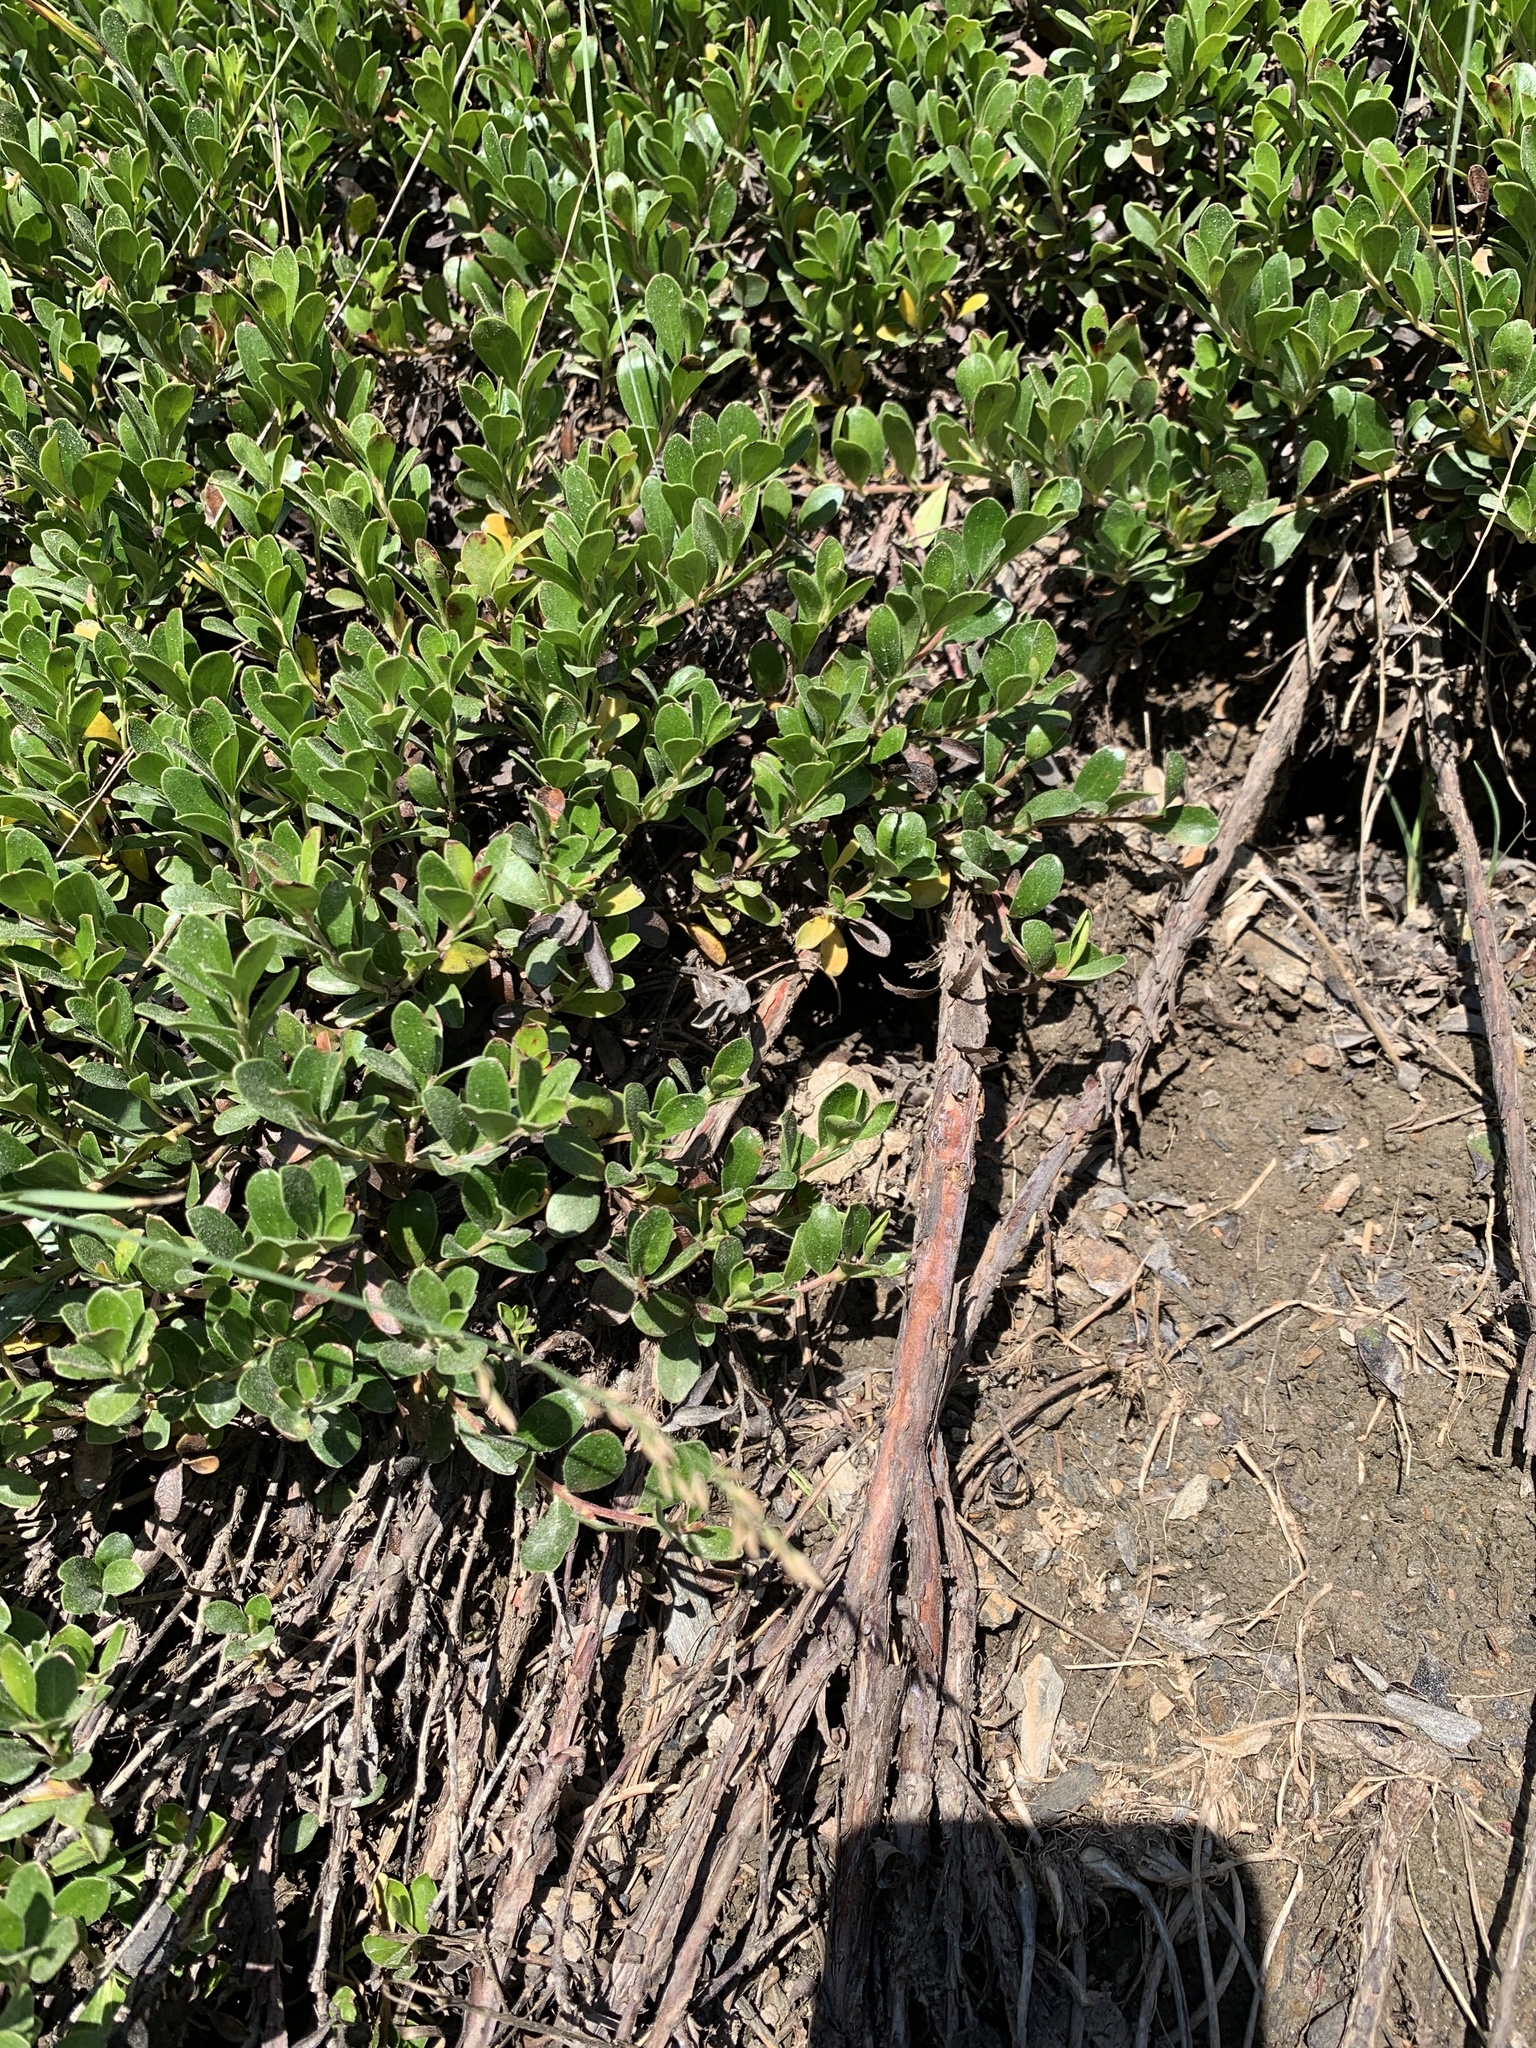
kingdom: Plantae
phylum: Tracheophyta
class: Magnoliopsida
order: Ericales
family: Ericaceae
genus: Arctostaphylos
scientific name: Arctostaphylos uva-ursi
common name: Bearberry
